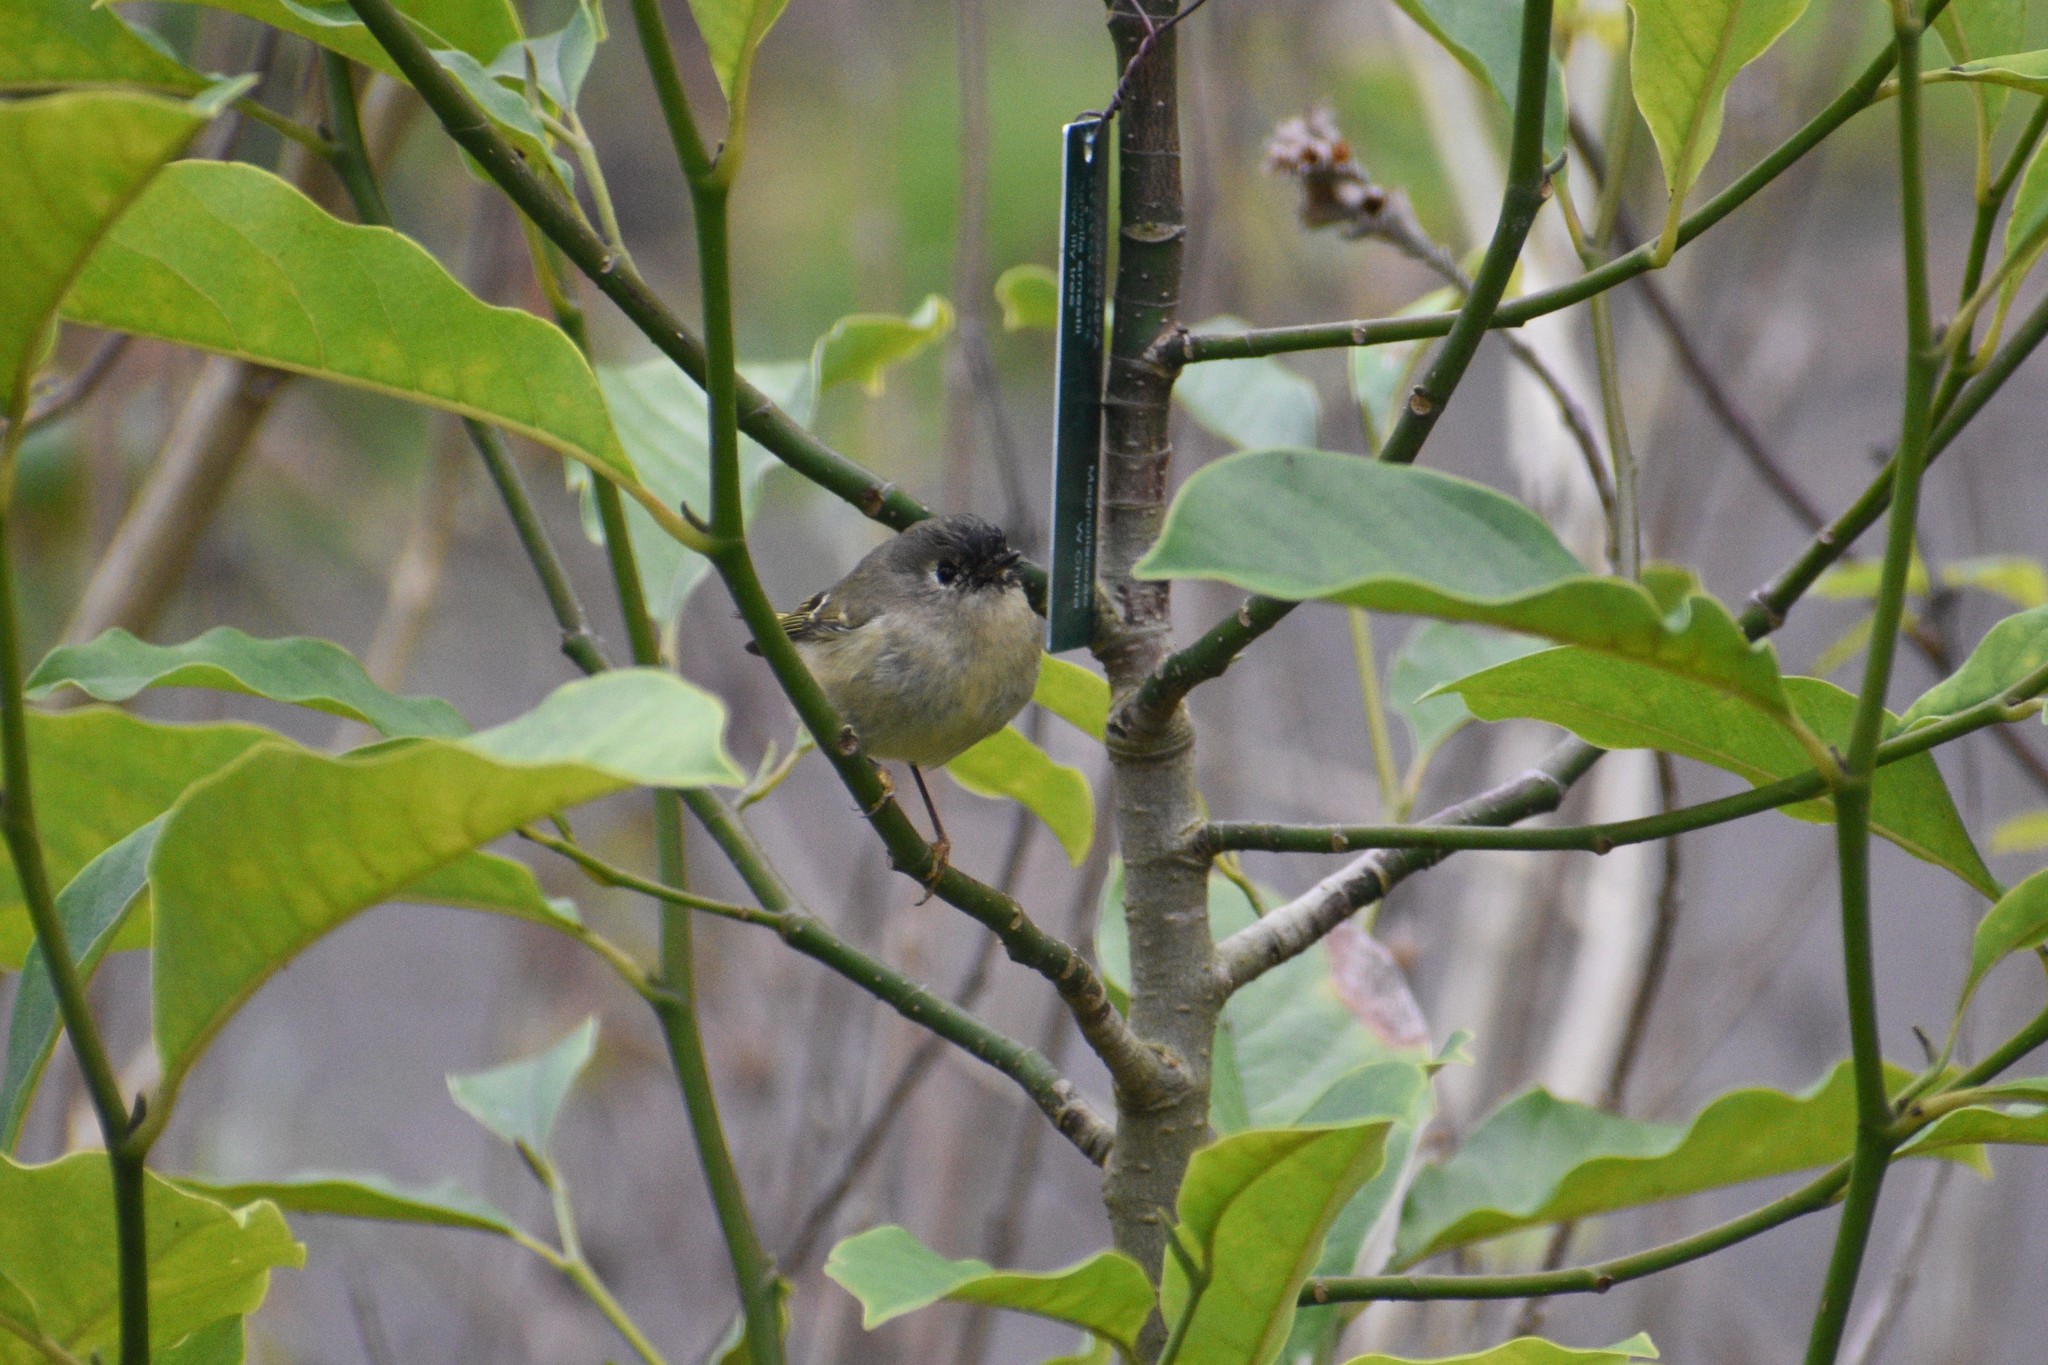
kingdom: Animalia
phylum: Chordata
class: Aves
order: Passeriformes
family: Regulidae
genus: Regulus
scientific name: Regulus calendula
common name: Ruby-crowned kinglet
